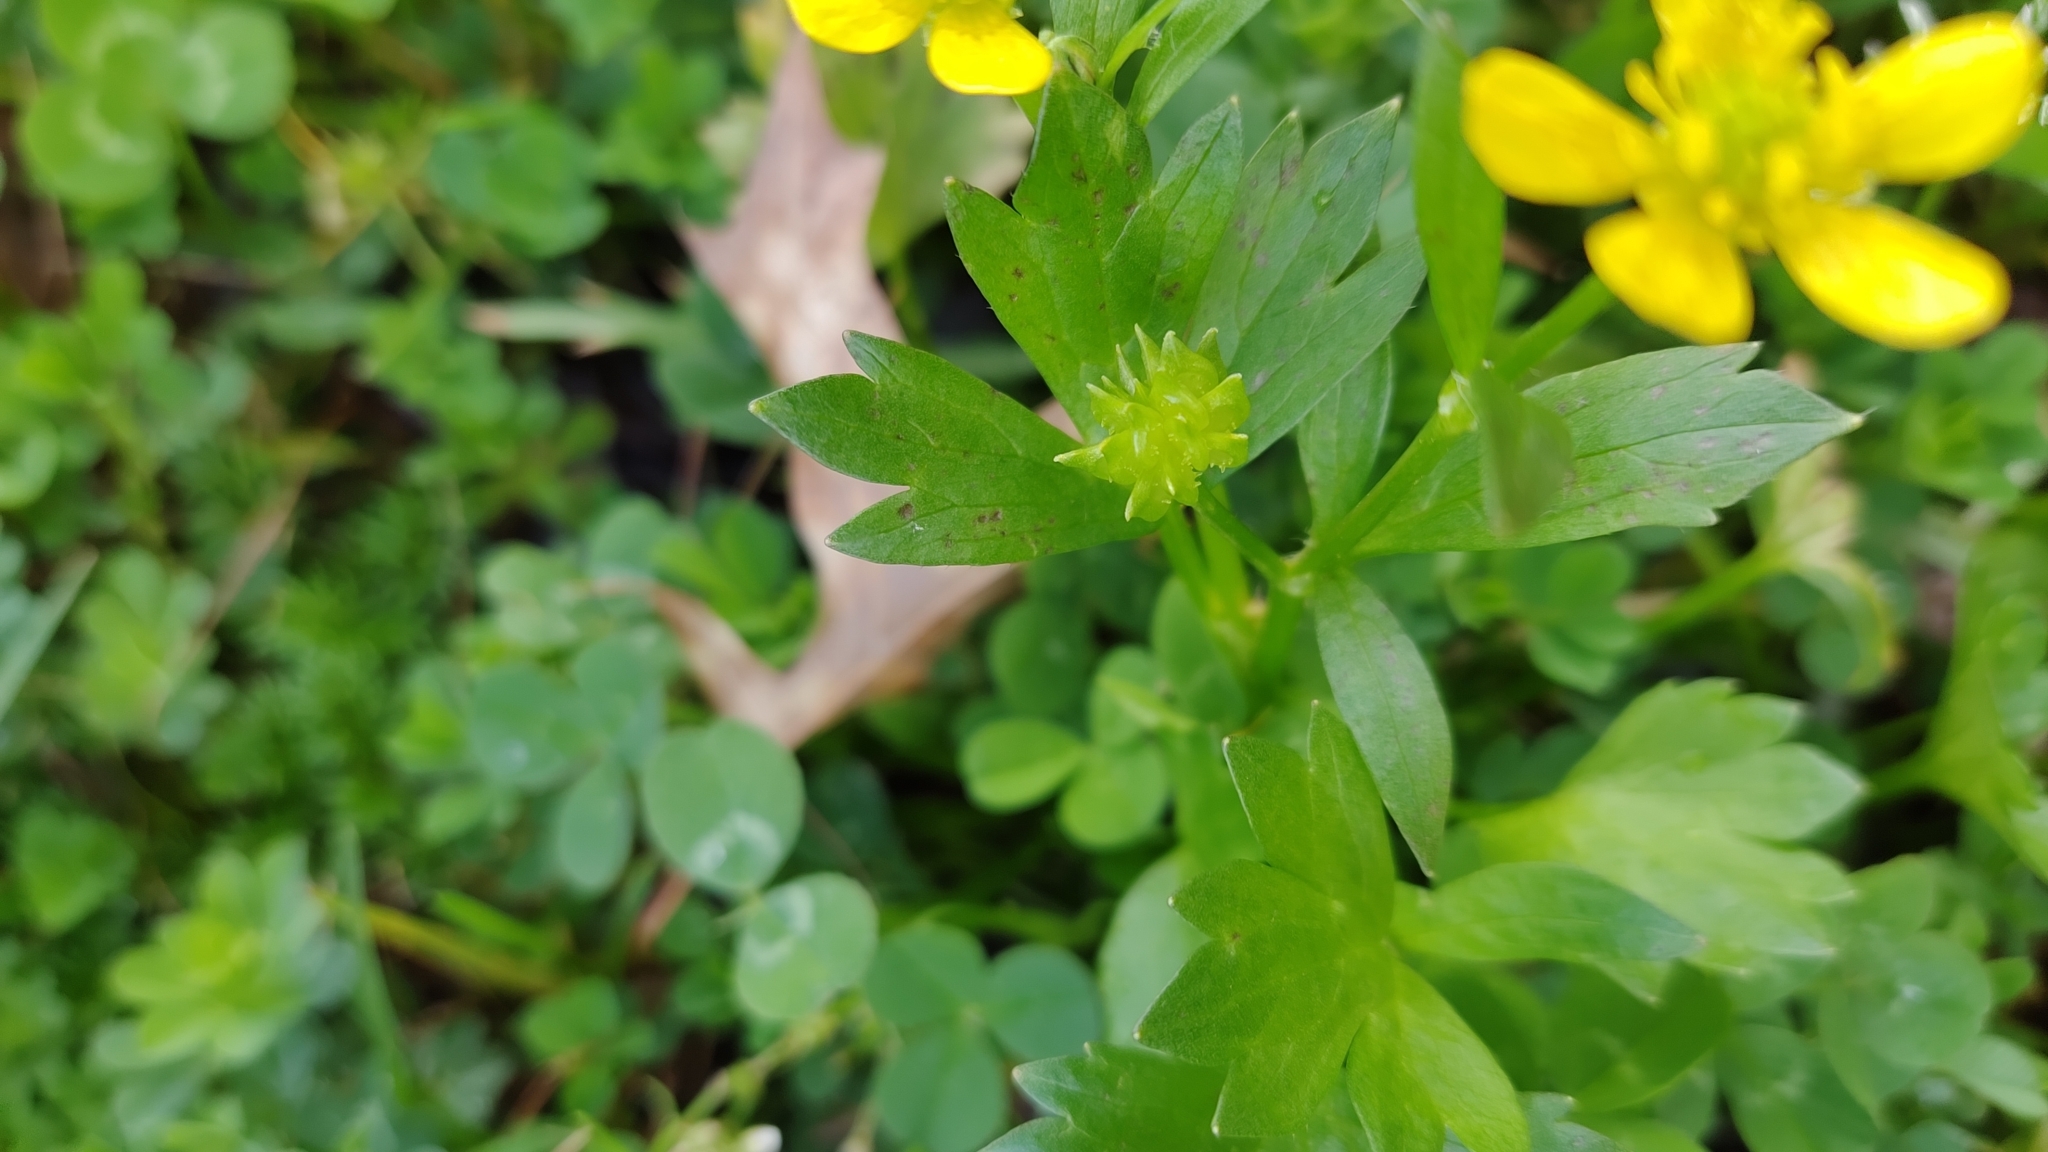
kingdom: Plantae
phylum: Tracheophyta
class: Magnoliopsida
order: Ranunculales
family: Ranunculaceae
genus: Ranunculus
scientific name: Ranunculus muricatus
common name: Rough-fruited buttercup
